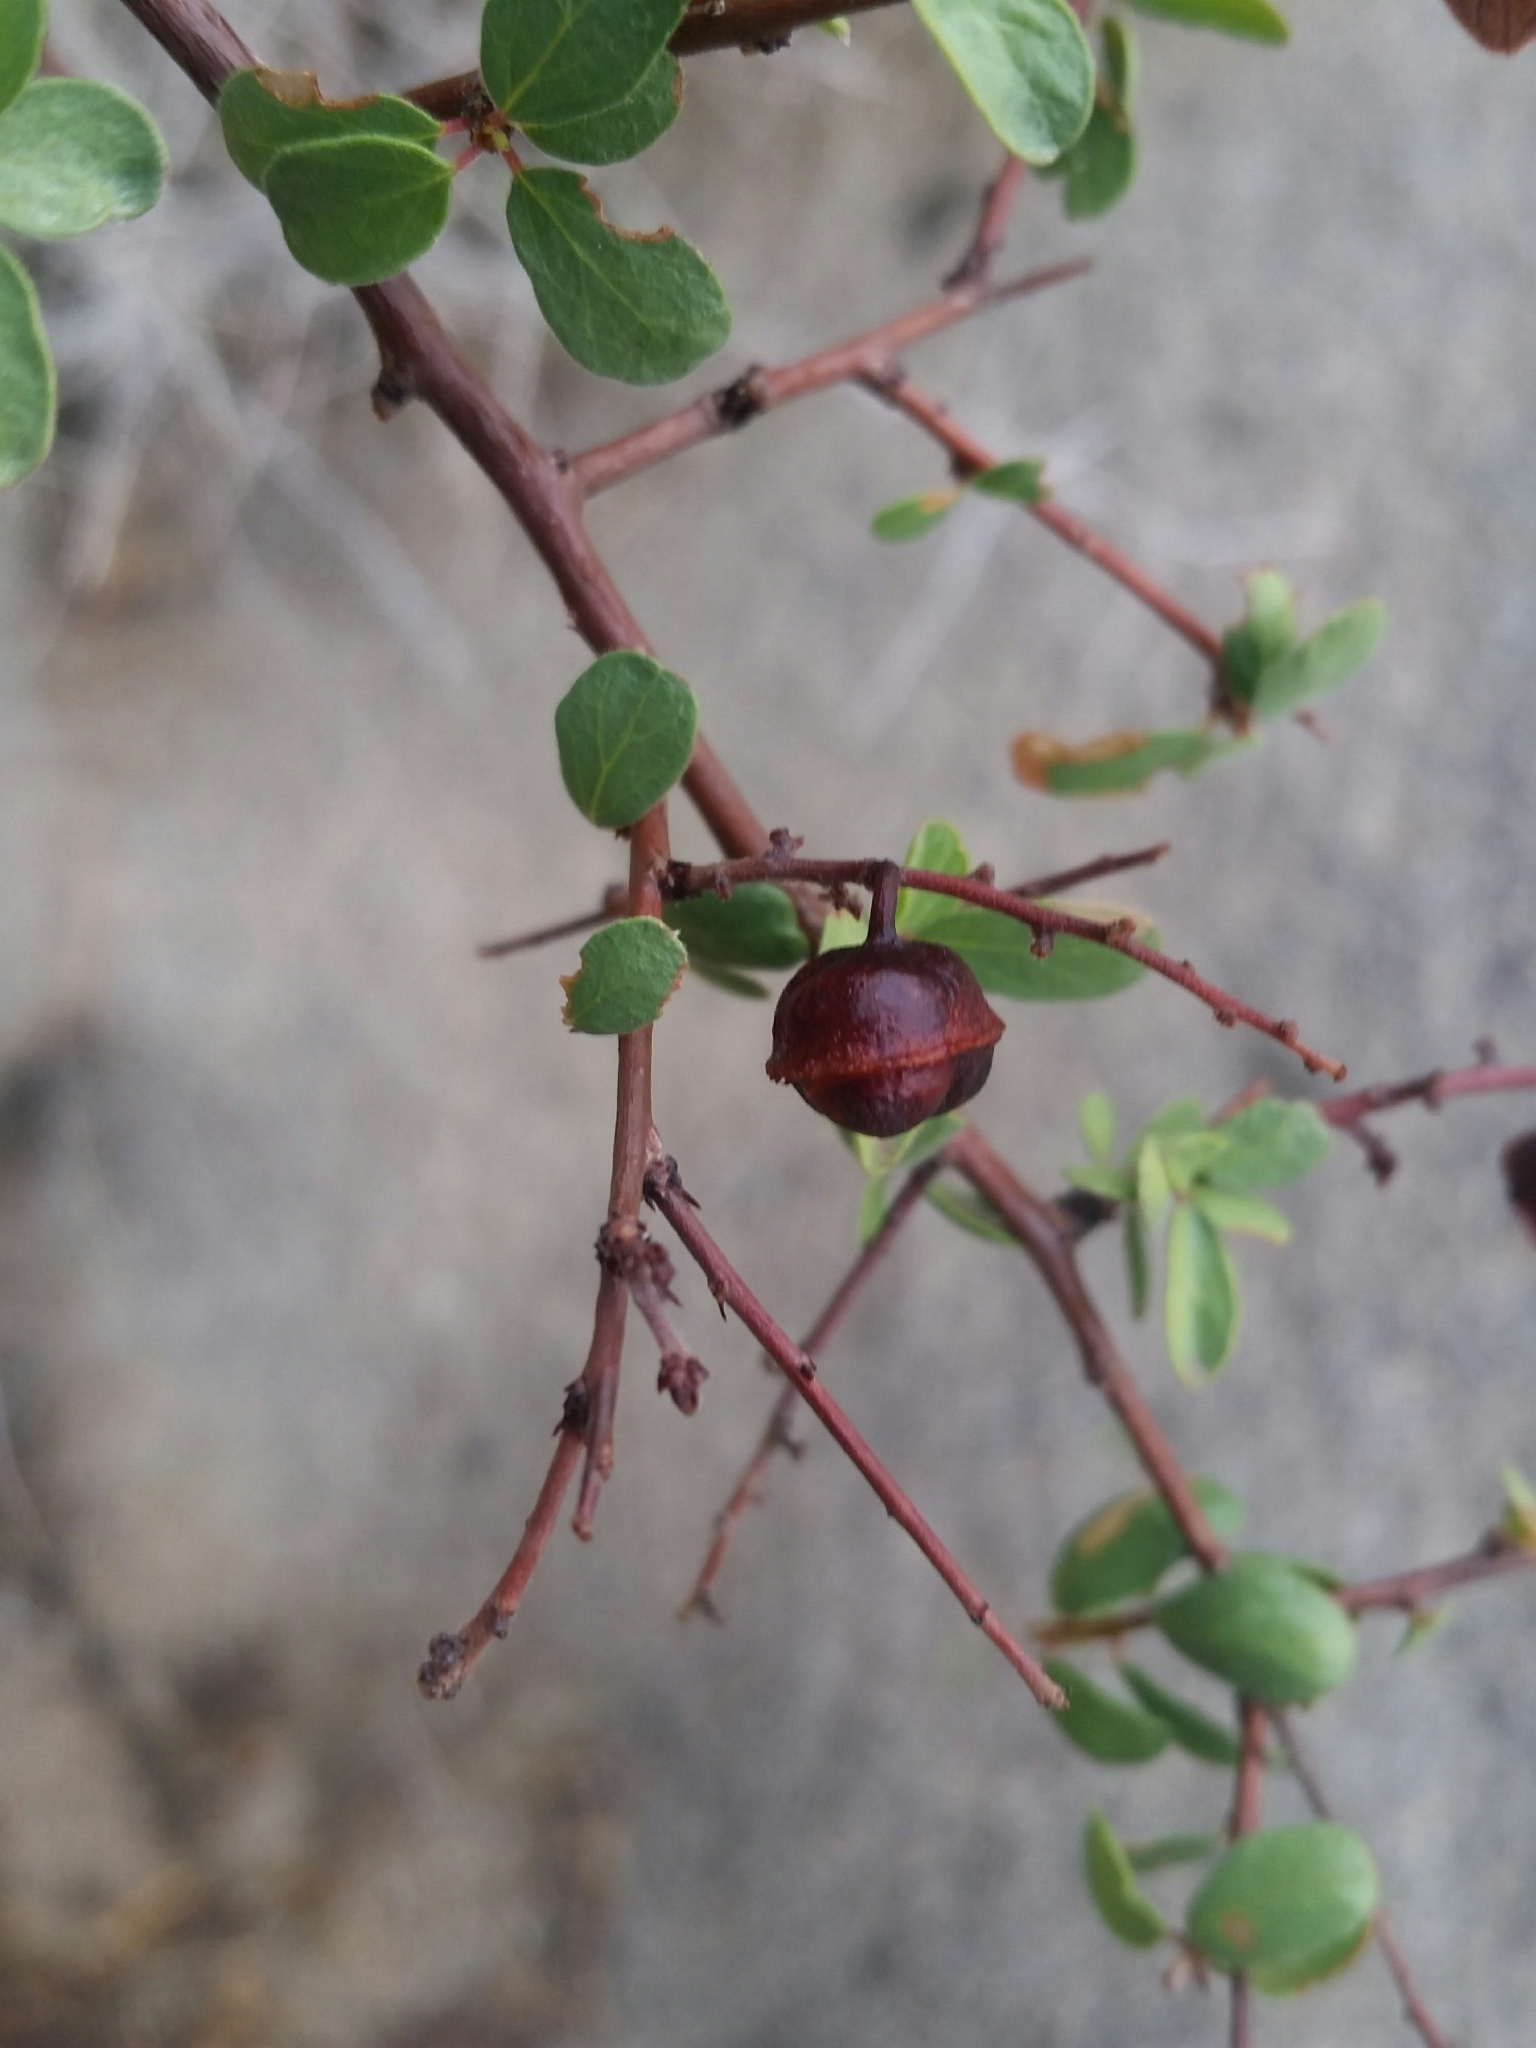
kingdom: Plantae
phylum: Tracheophyta
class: Magnoliopsida
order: Rosales
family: Rhamnaceae
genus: Colubrina
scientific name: Colubrina californica
